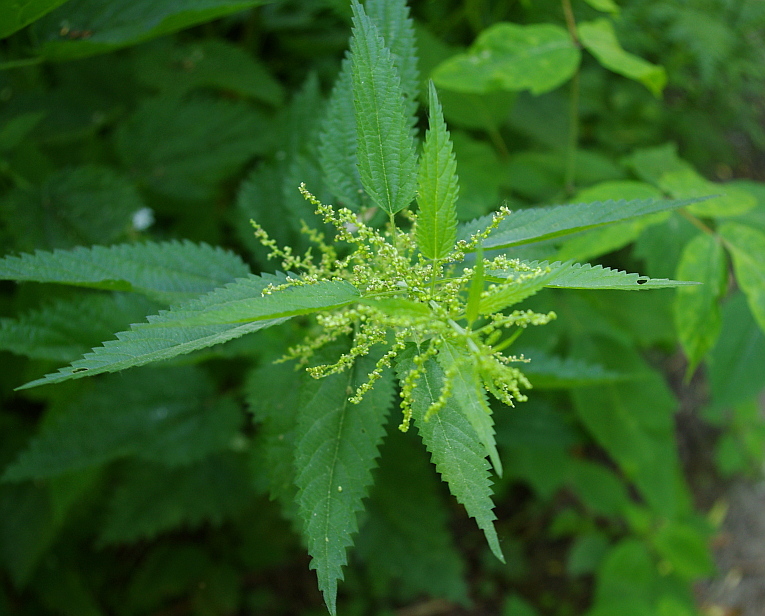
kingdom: Plantae
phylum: Tracheophyta
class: Magnoliopsida
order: Rosales
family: Urticaceae
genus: Urtica
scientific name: Urtica dioica
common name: Common nettle
